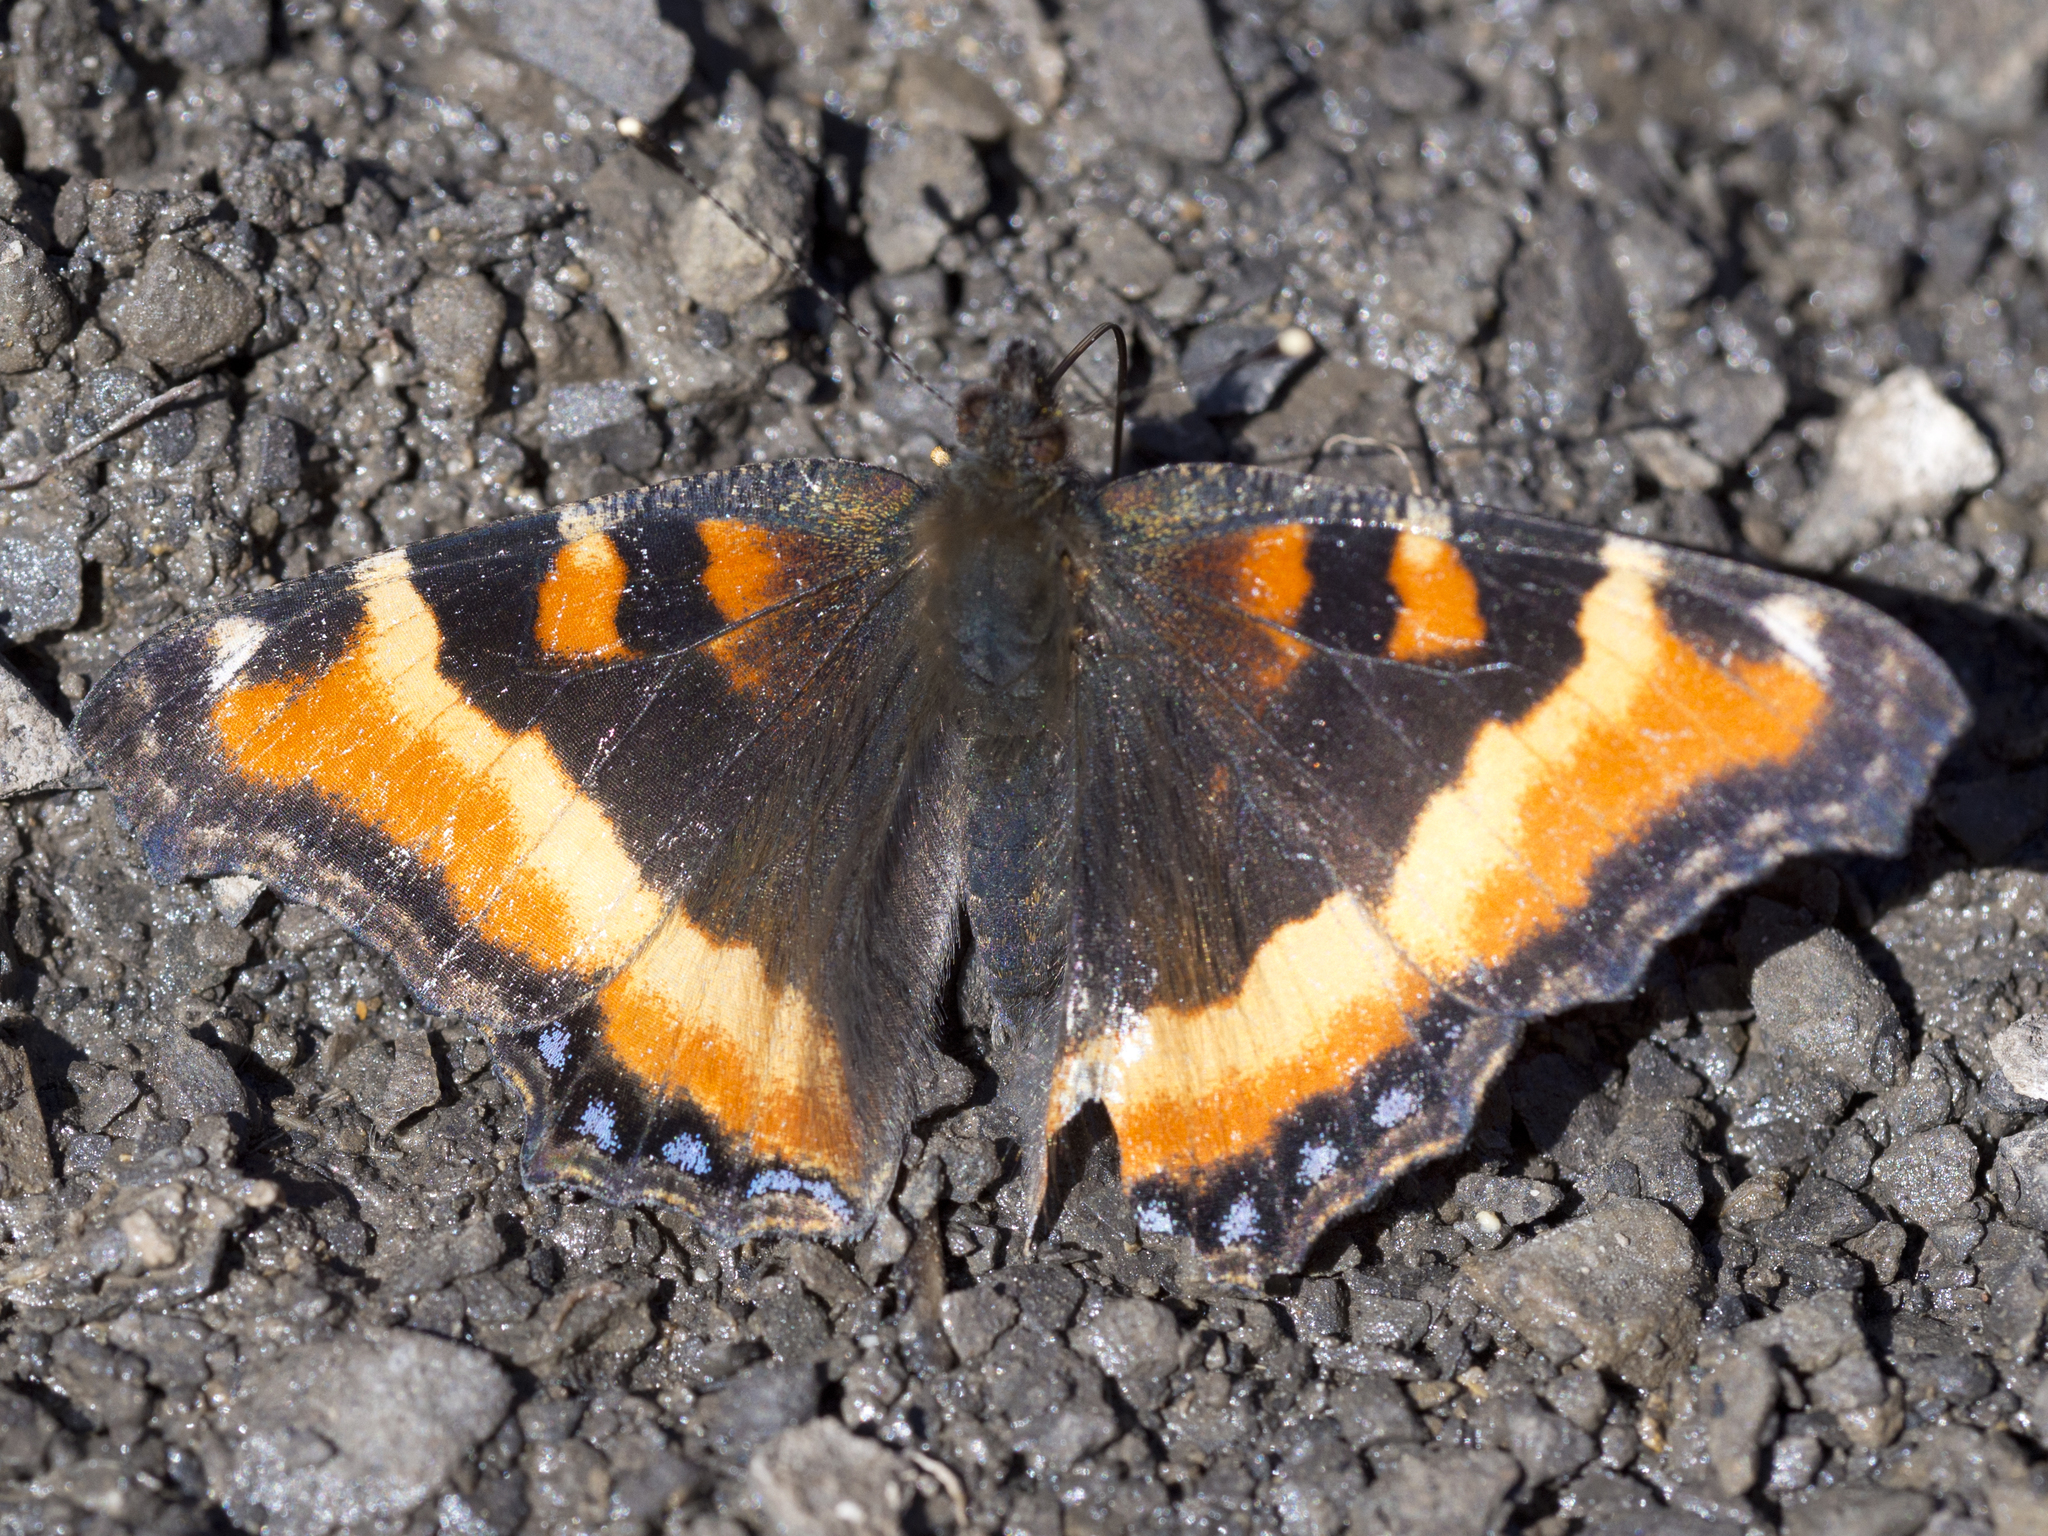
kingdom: Animalia
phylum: Arthropoda
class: Insecta
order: Lepidoptera
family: Nymphalidae
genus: Aglais
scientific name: Aglais milberti
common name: Milbert's tortoiseshell
